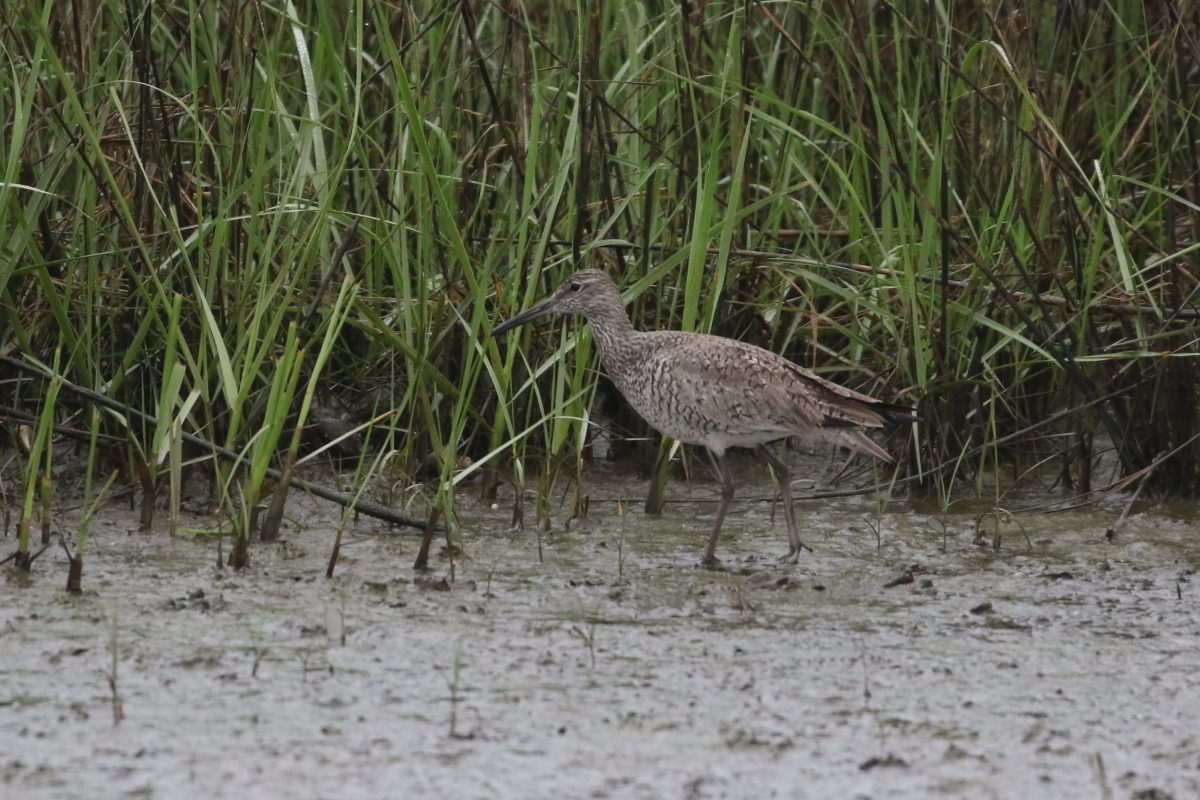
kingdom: Animalia
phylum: Chordata
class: Aves
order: Charadriiformes
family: Scolopacidae
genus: Tringa
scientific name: Tringa semipalmata
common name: Willet
